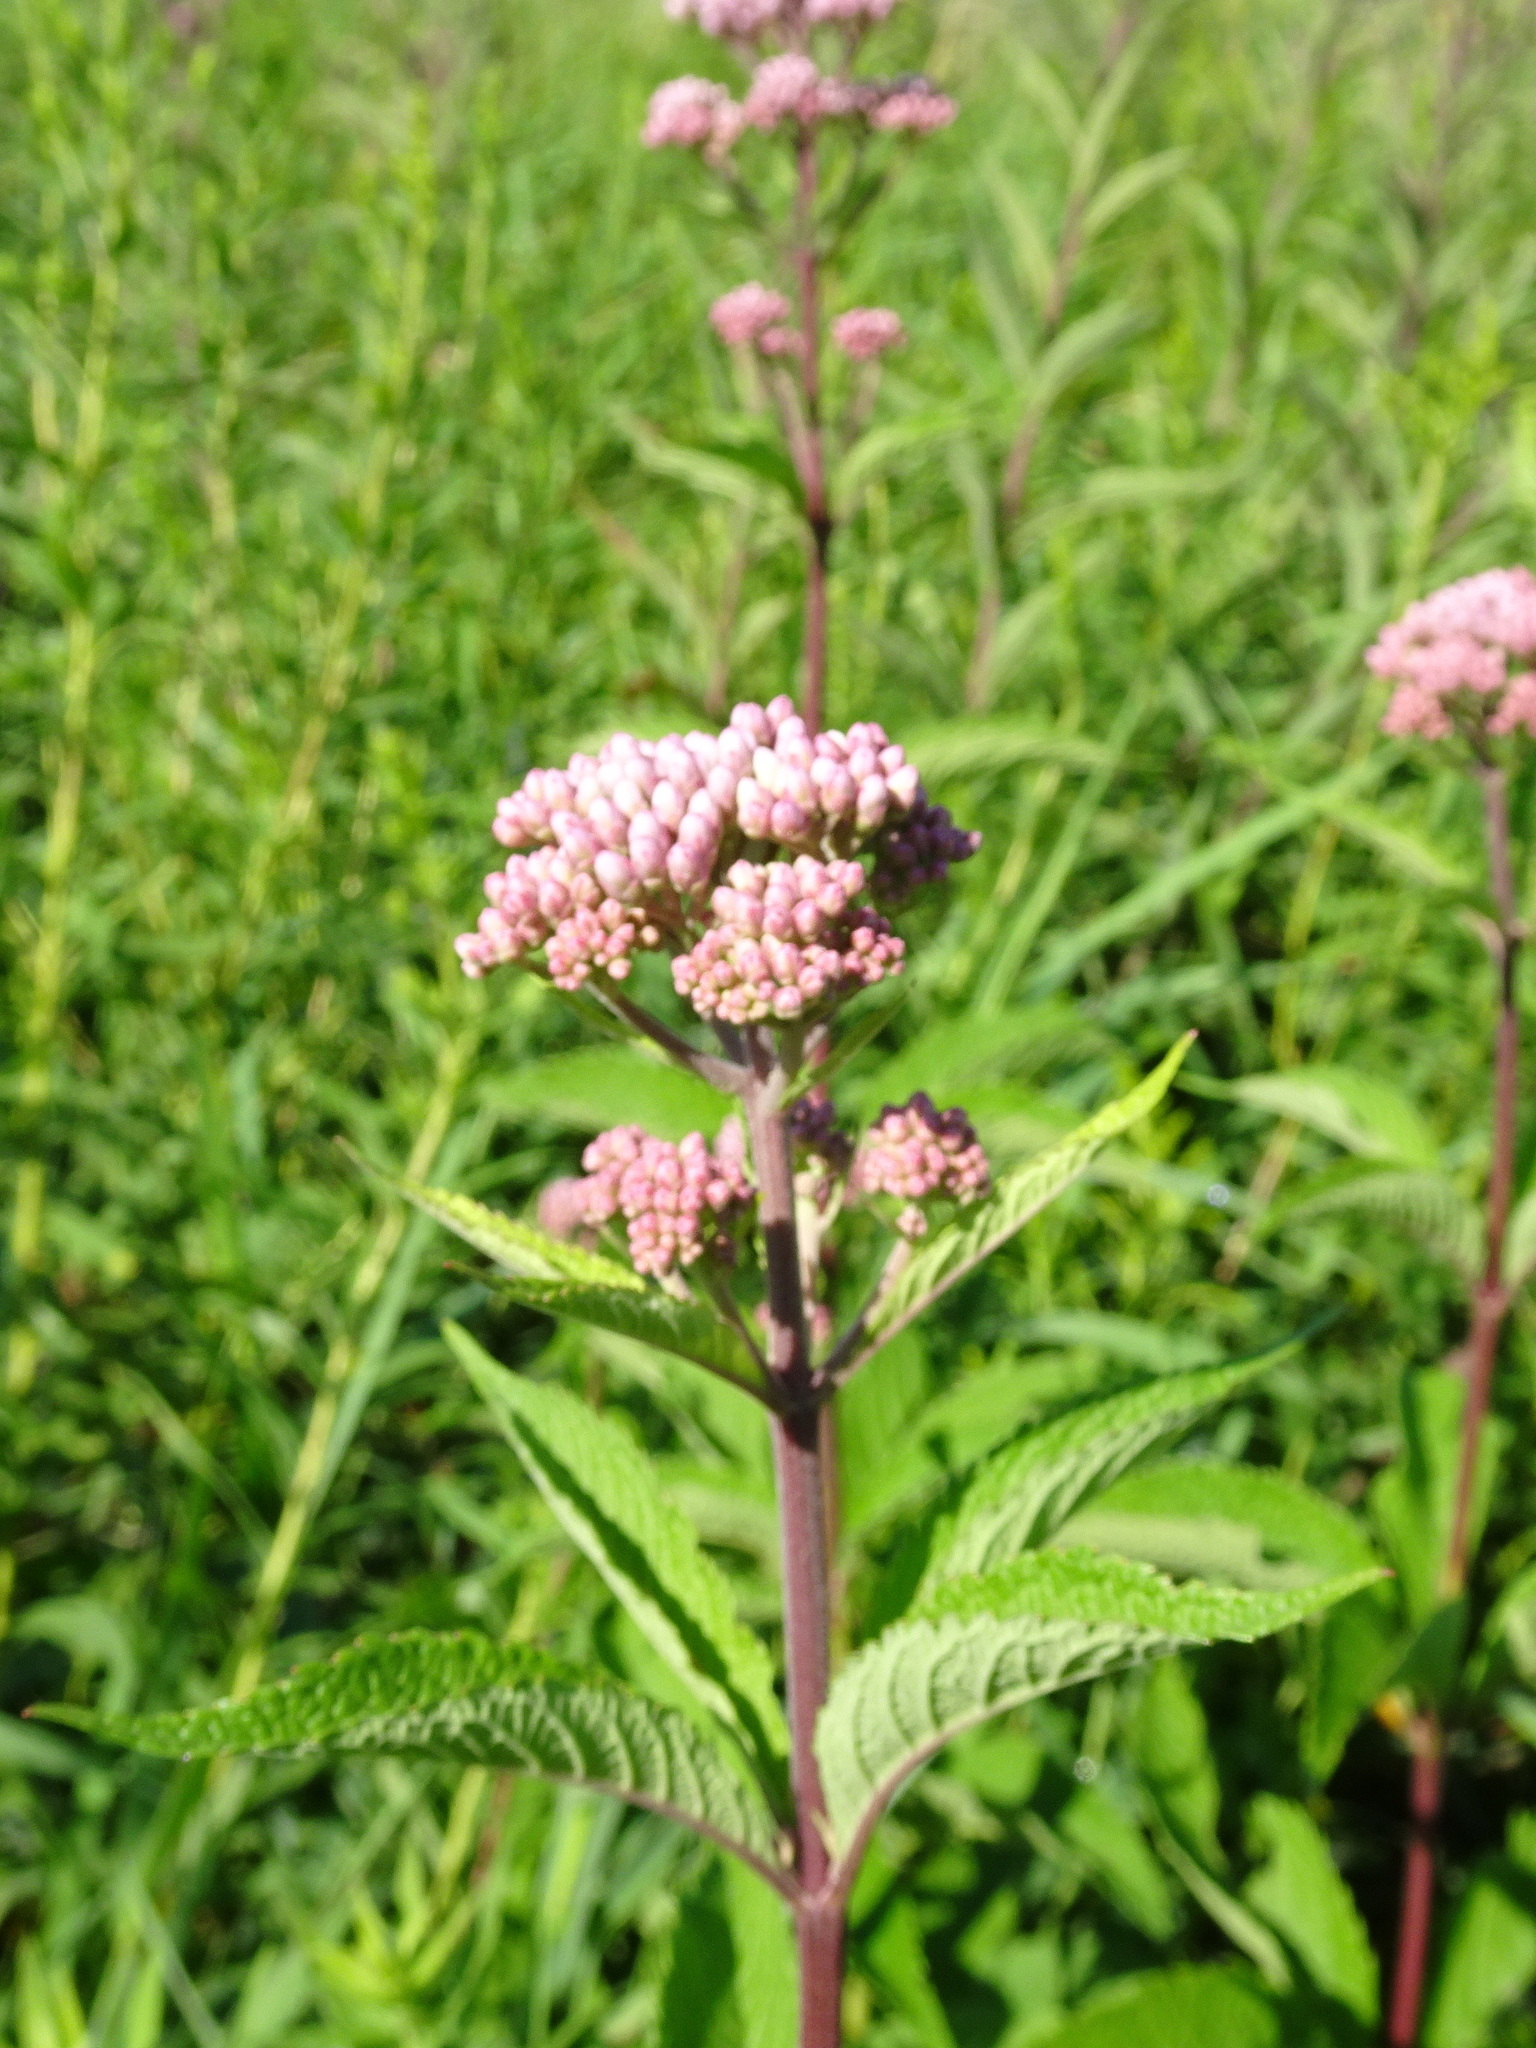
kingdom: Plantae
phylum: Tracheophyta
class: Magnoliopsida
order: Asterales
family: Asteraceae
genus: Eutrochium
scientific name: Eutrochium maculatum
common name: Spotted joe pye weed
